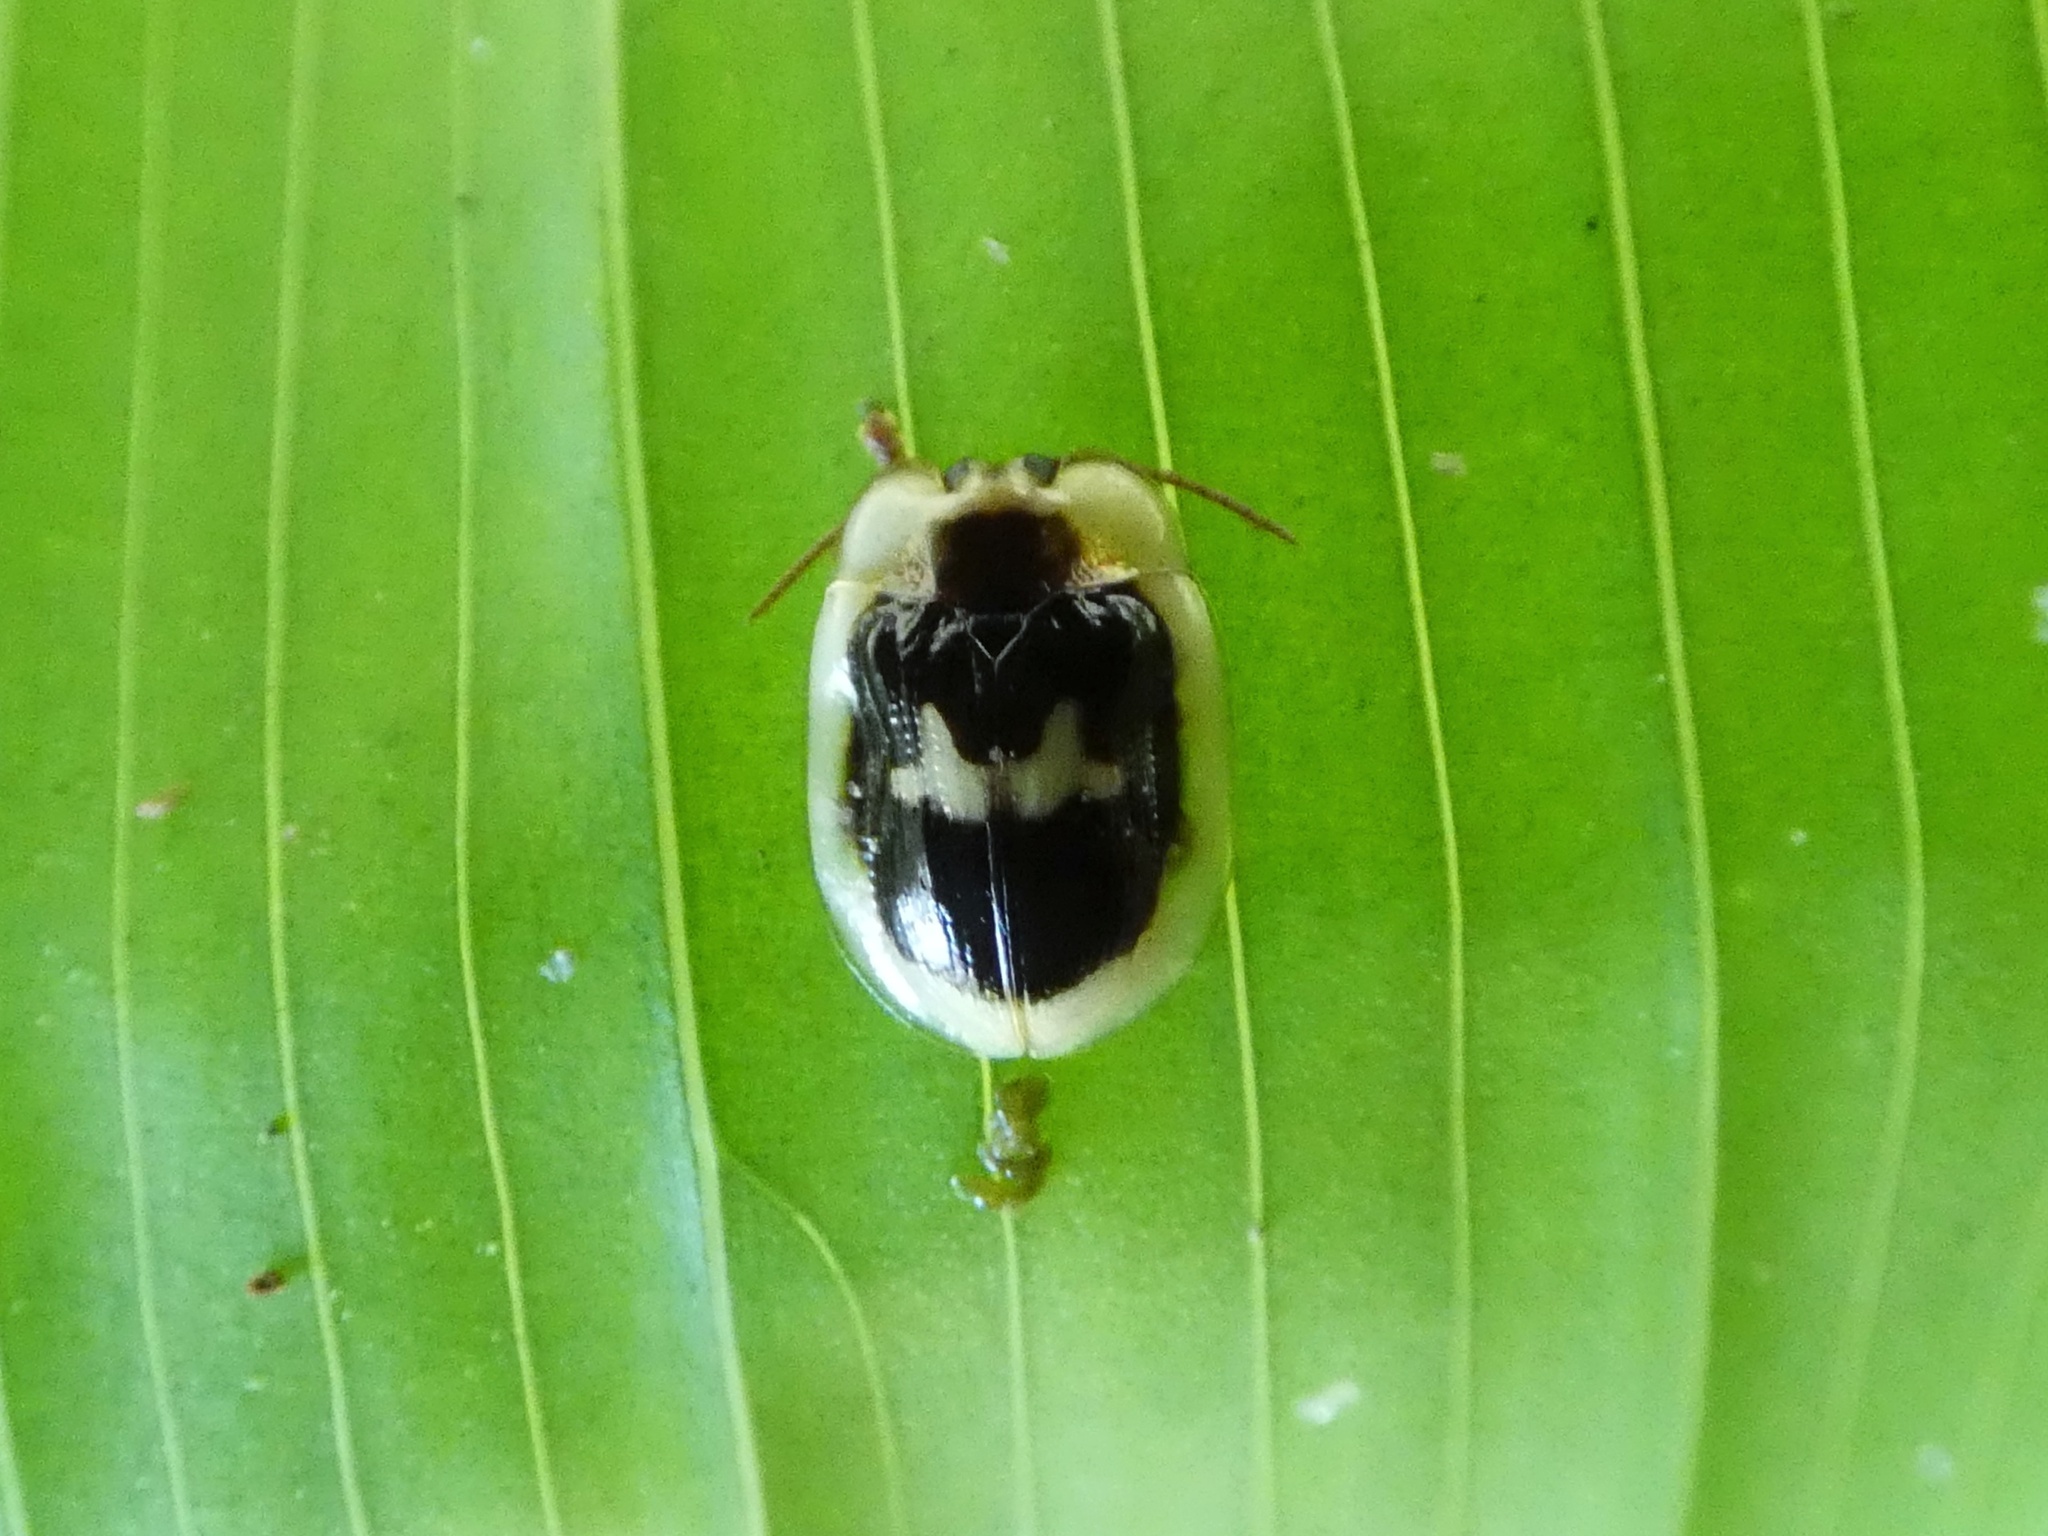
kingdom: Animalia
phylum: Arthropoda
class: Insecta
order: Coleoptera
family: Chrysomelidae
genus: Aslamidium
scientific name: Aslamidium semicirculare
